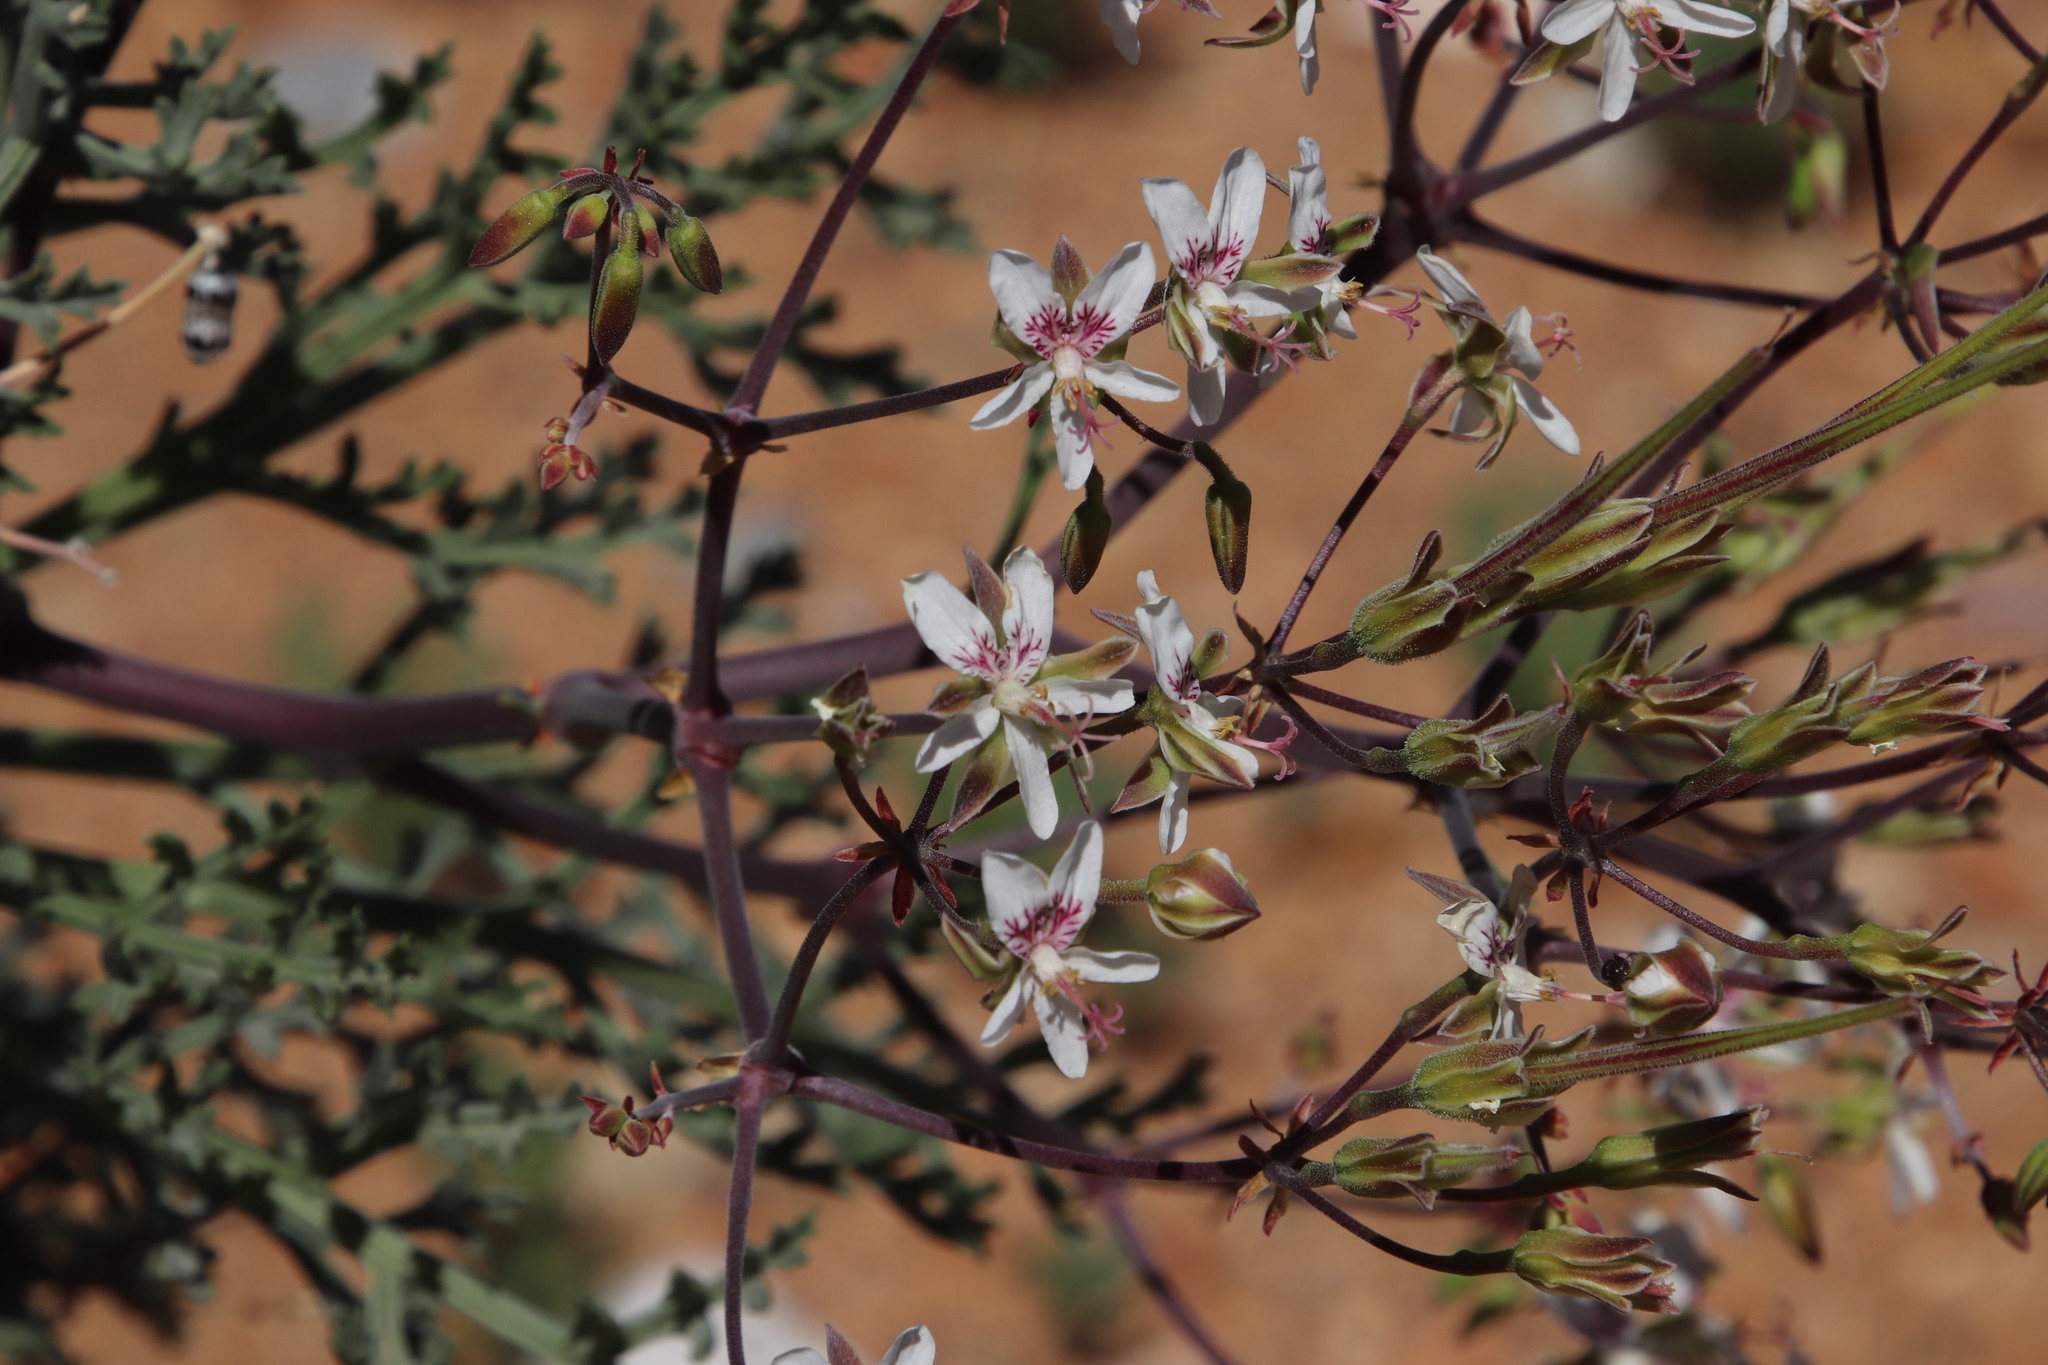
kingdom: Plantae
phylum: Tracheophyta
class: Magnoliopsida
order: Geraniales
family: Geraniaceae
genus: Pelargonium
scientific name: Pelargonium crithmifolium
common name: Samphire-leaf pelargonium
